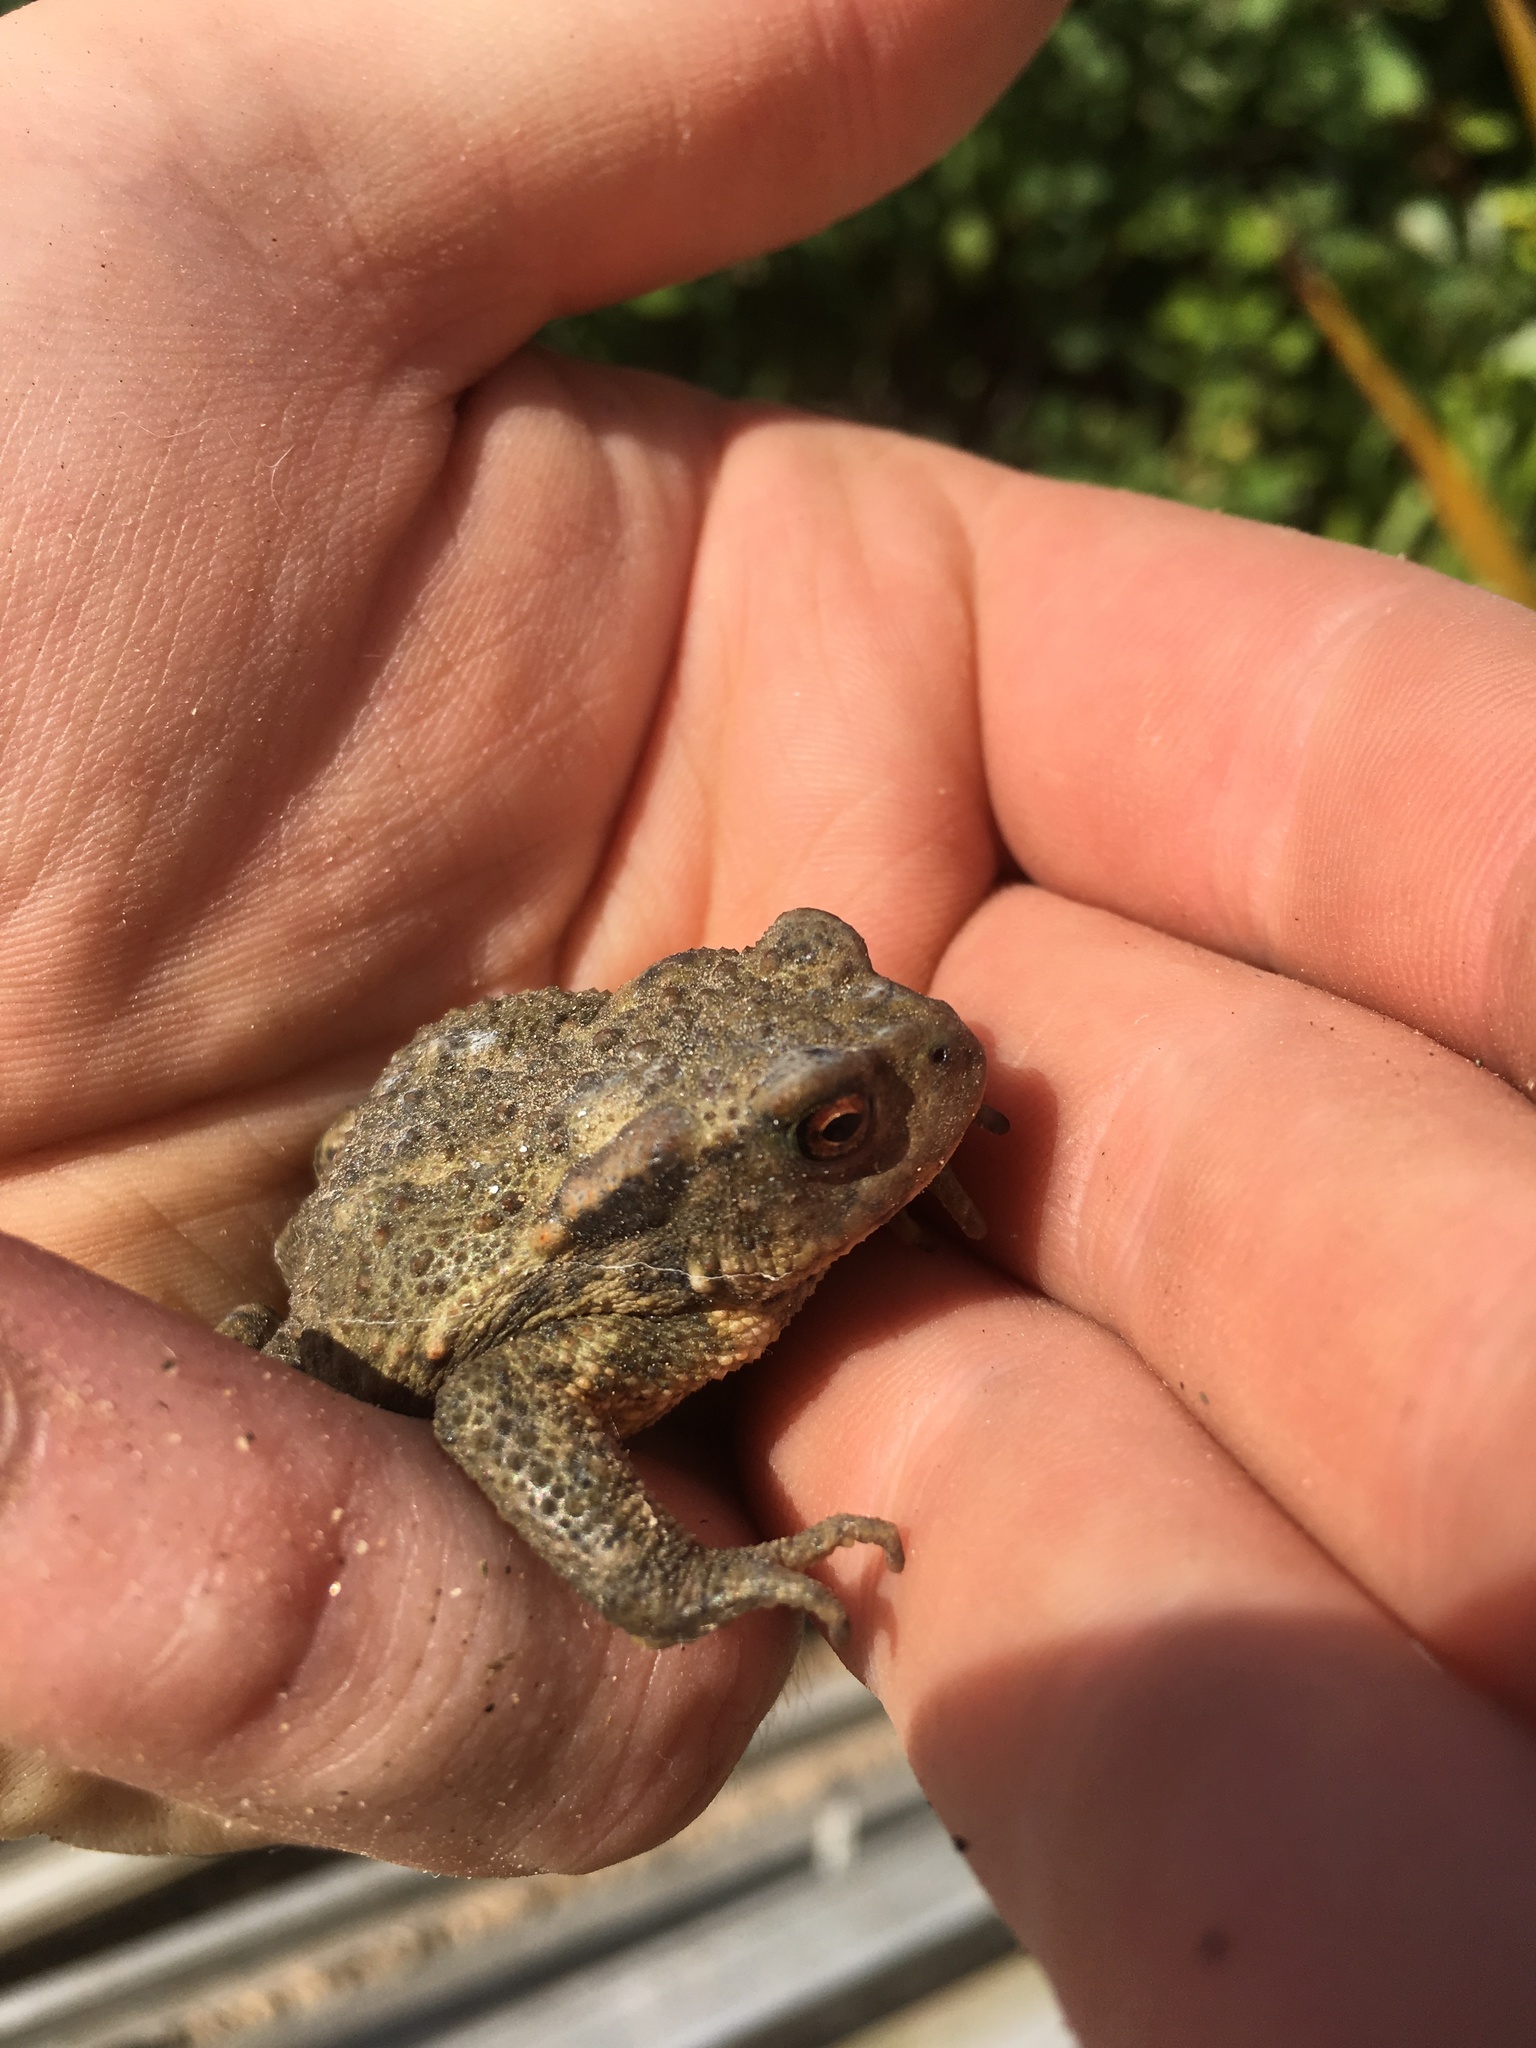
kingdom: Animalia
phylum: Chordata
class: Amphibia
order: Anura
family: Bufonidae
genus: Bufo
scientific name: Bufo spinosus
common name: Western common toad
